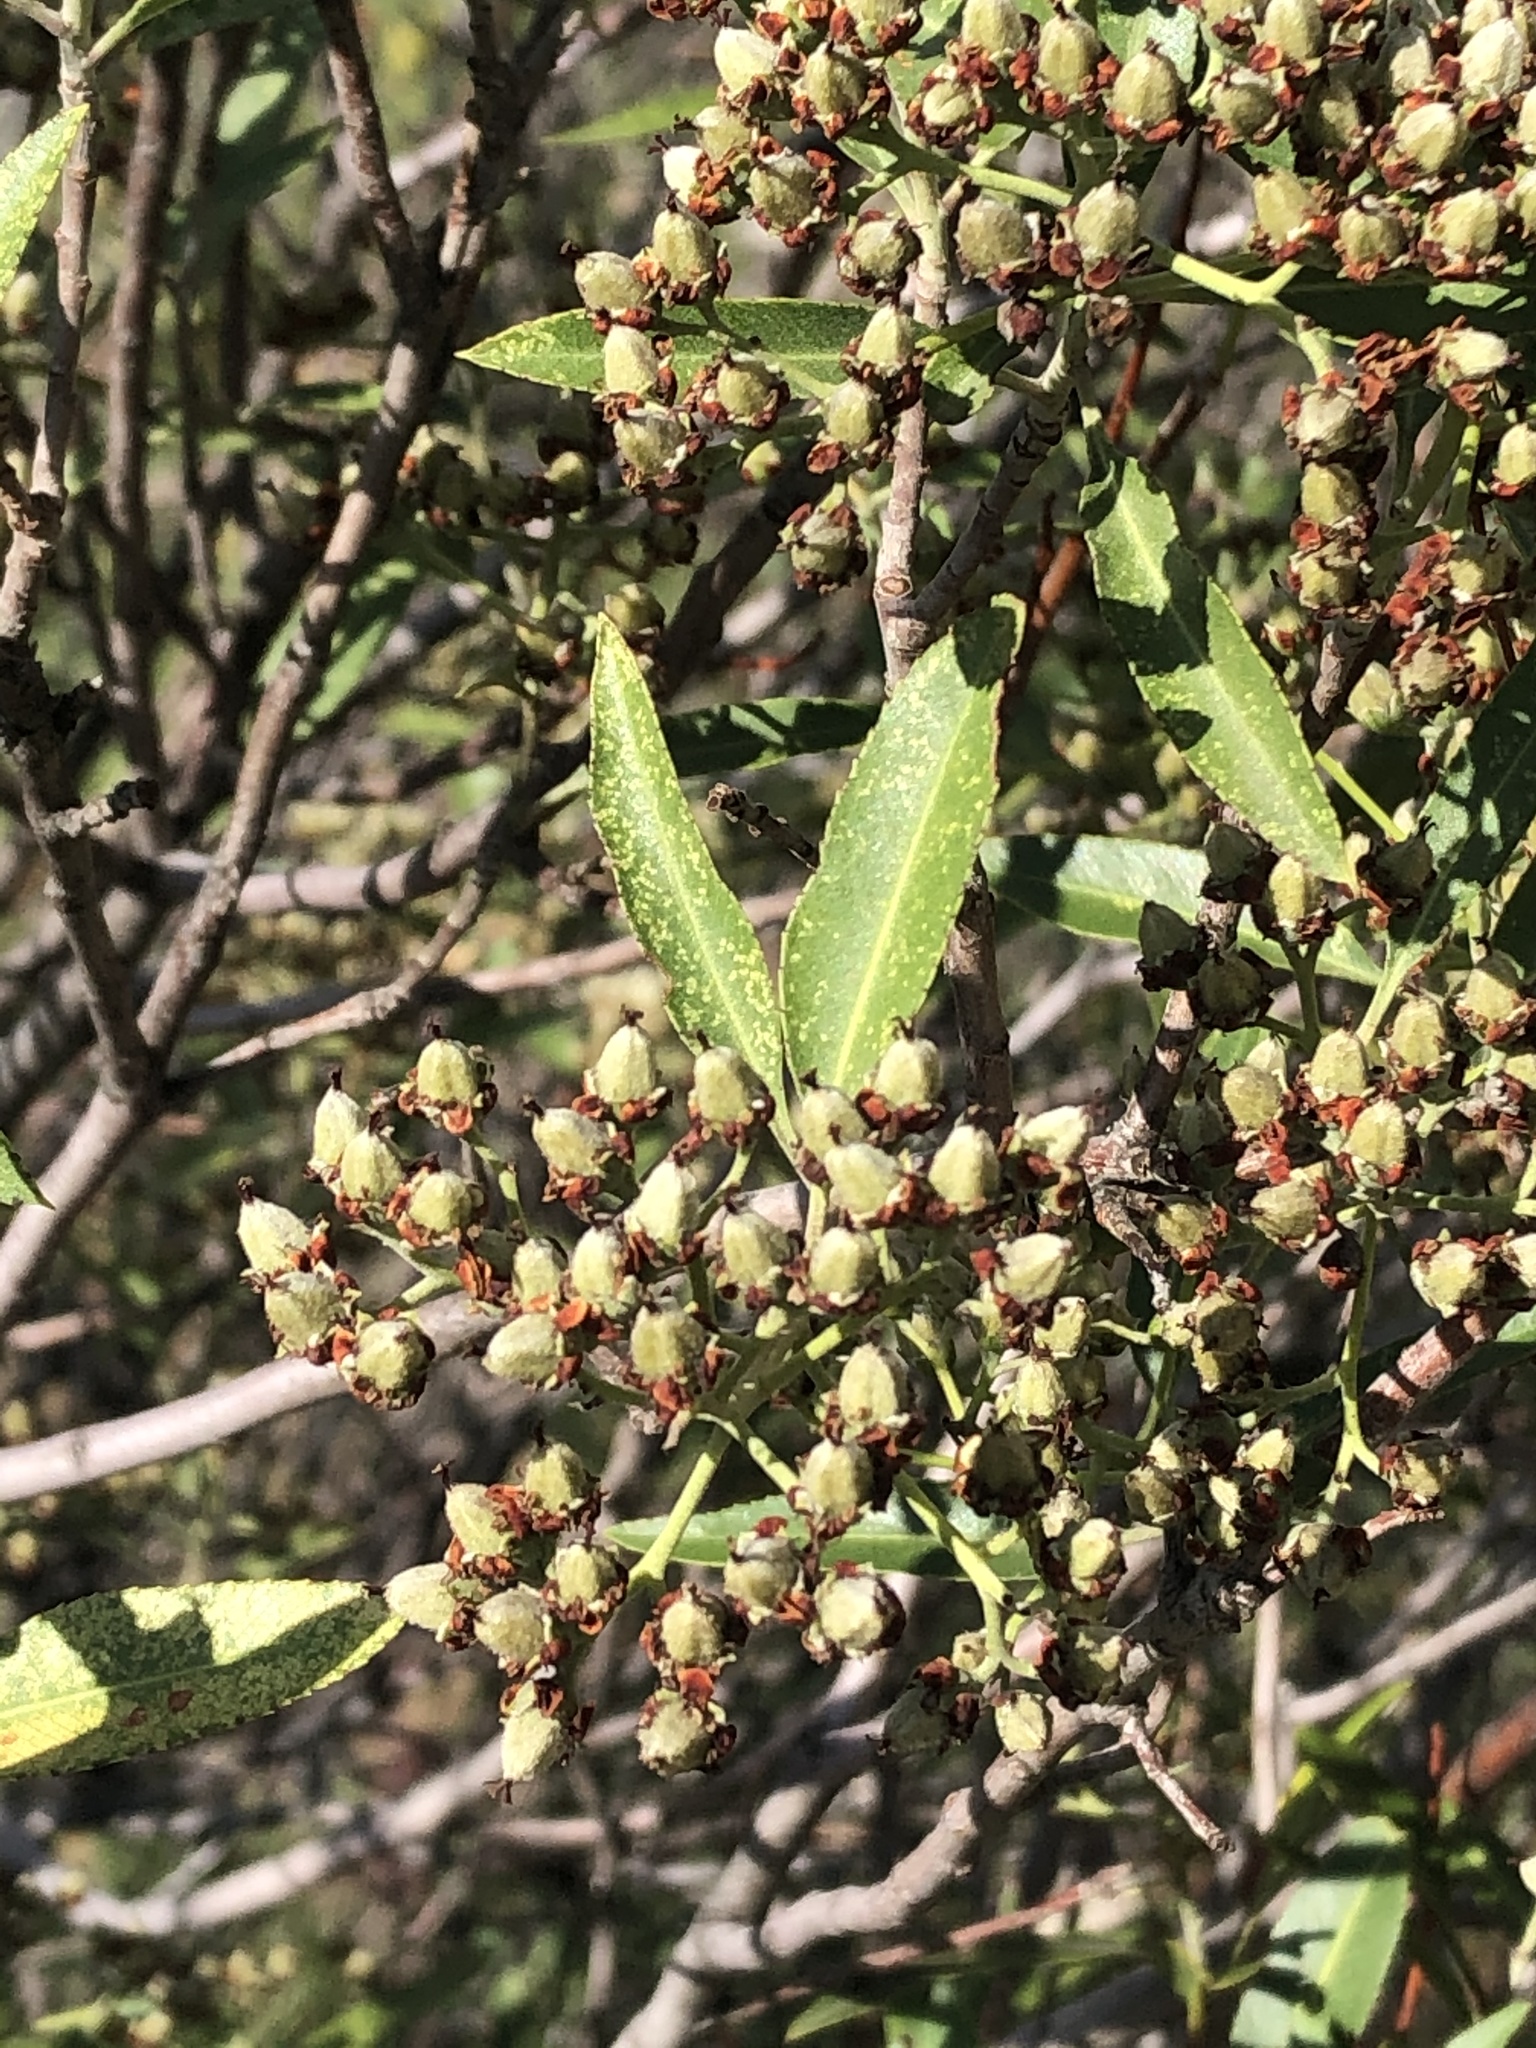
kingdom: Plantae
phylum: Tracheophyta
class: Magnoliopsida
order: Rosales
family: Rosaceae
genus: Vauquelinia
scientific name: Vauquelinia californica
